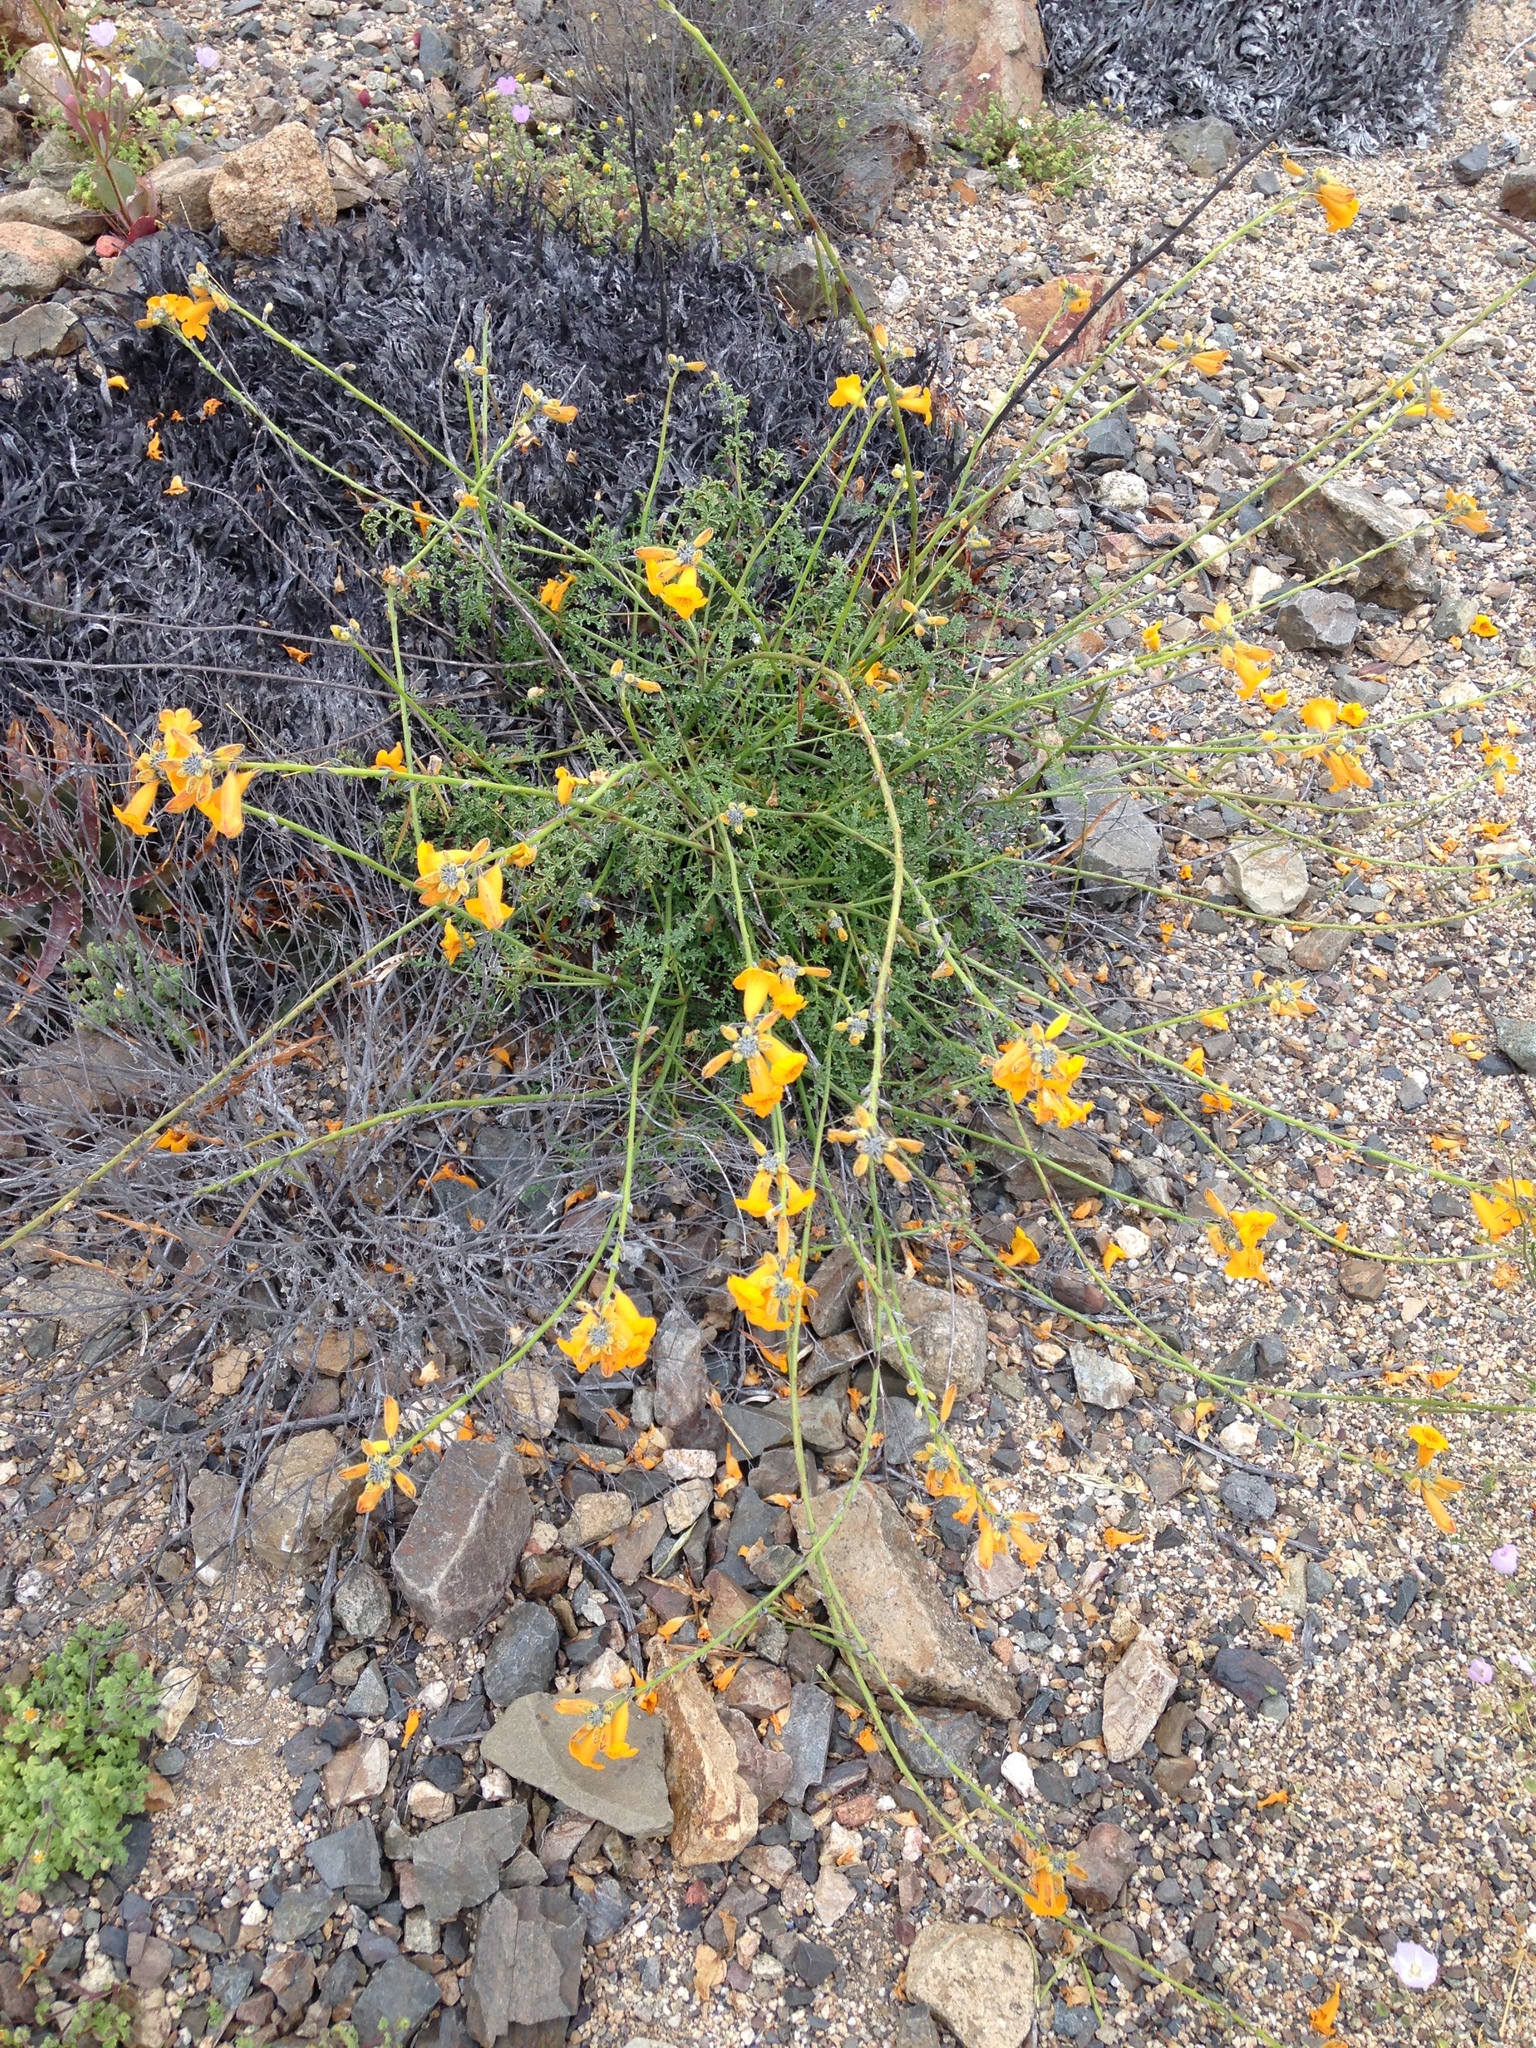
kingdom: Plantae
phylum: Tracheophyta
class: Magnoliopsida
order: Lamiales
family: Bignoniaceae
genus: Argylia
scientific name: Argylia radiata
